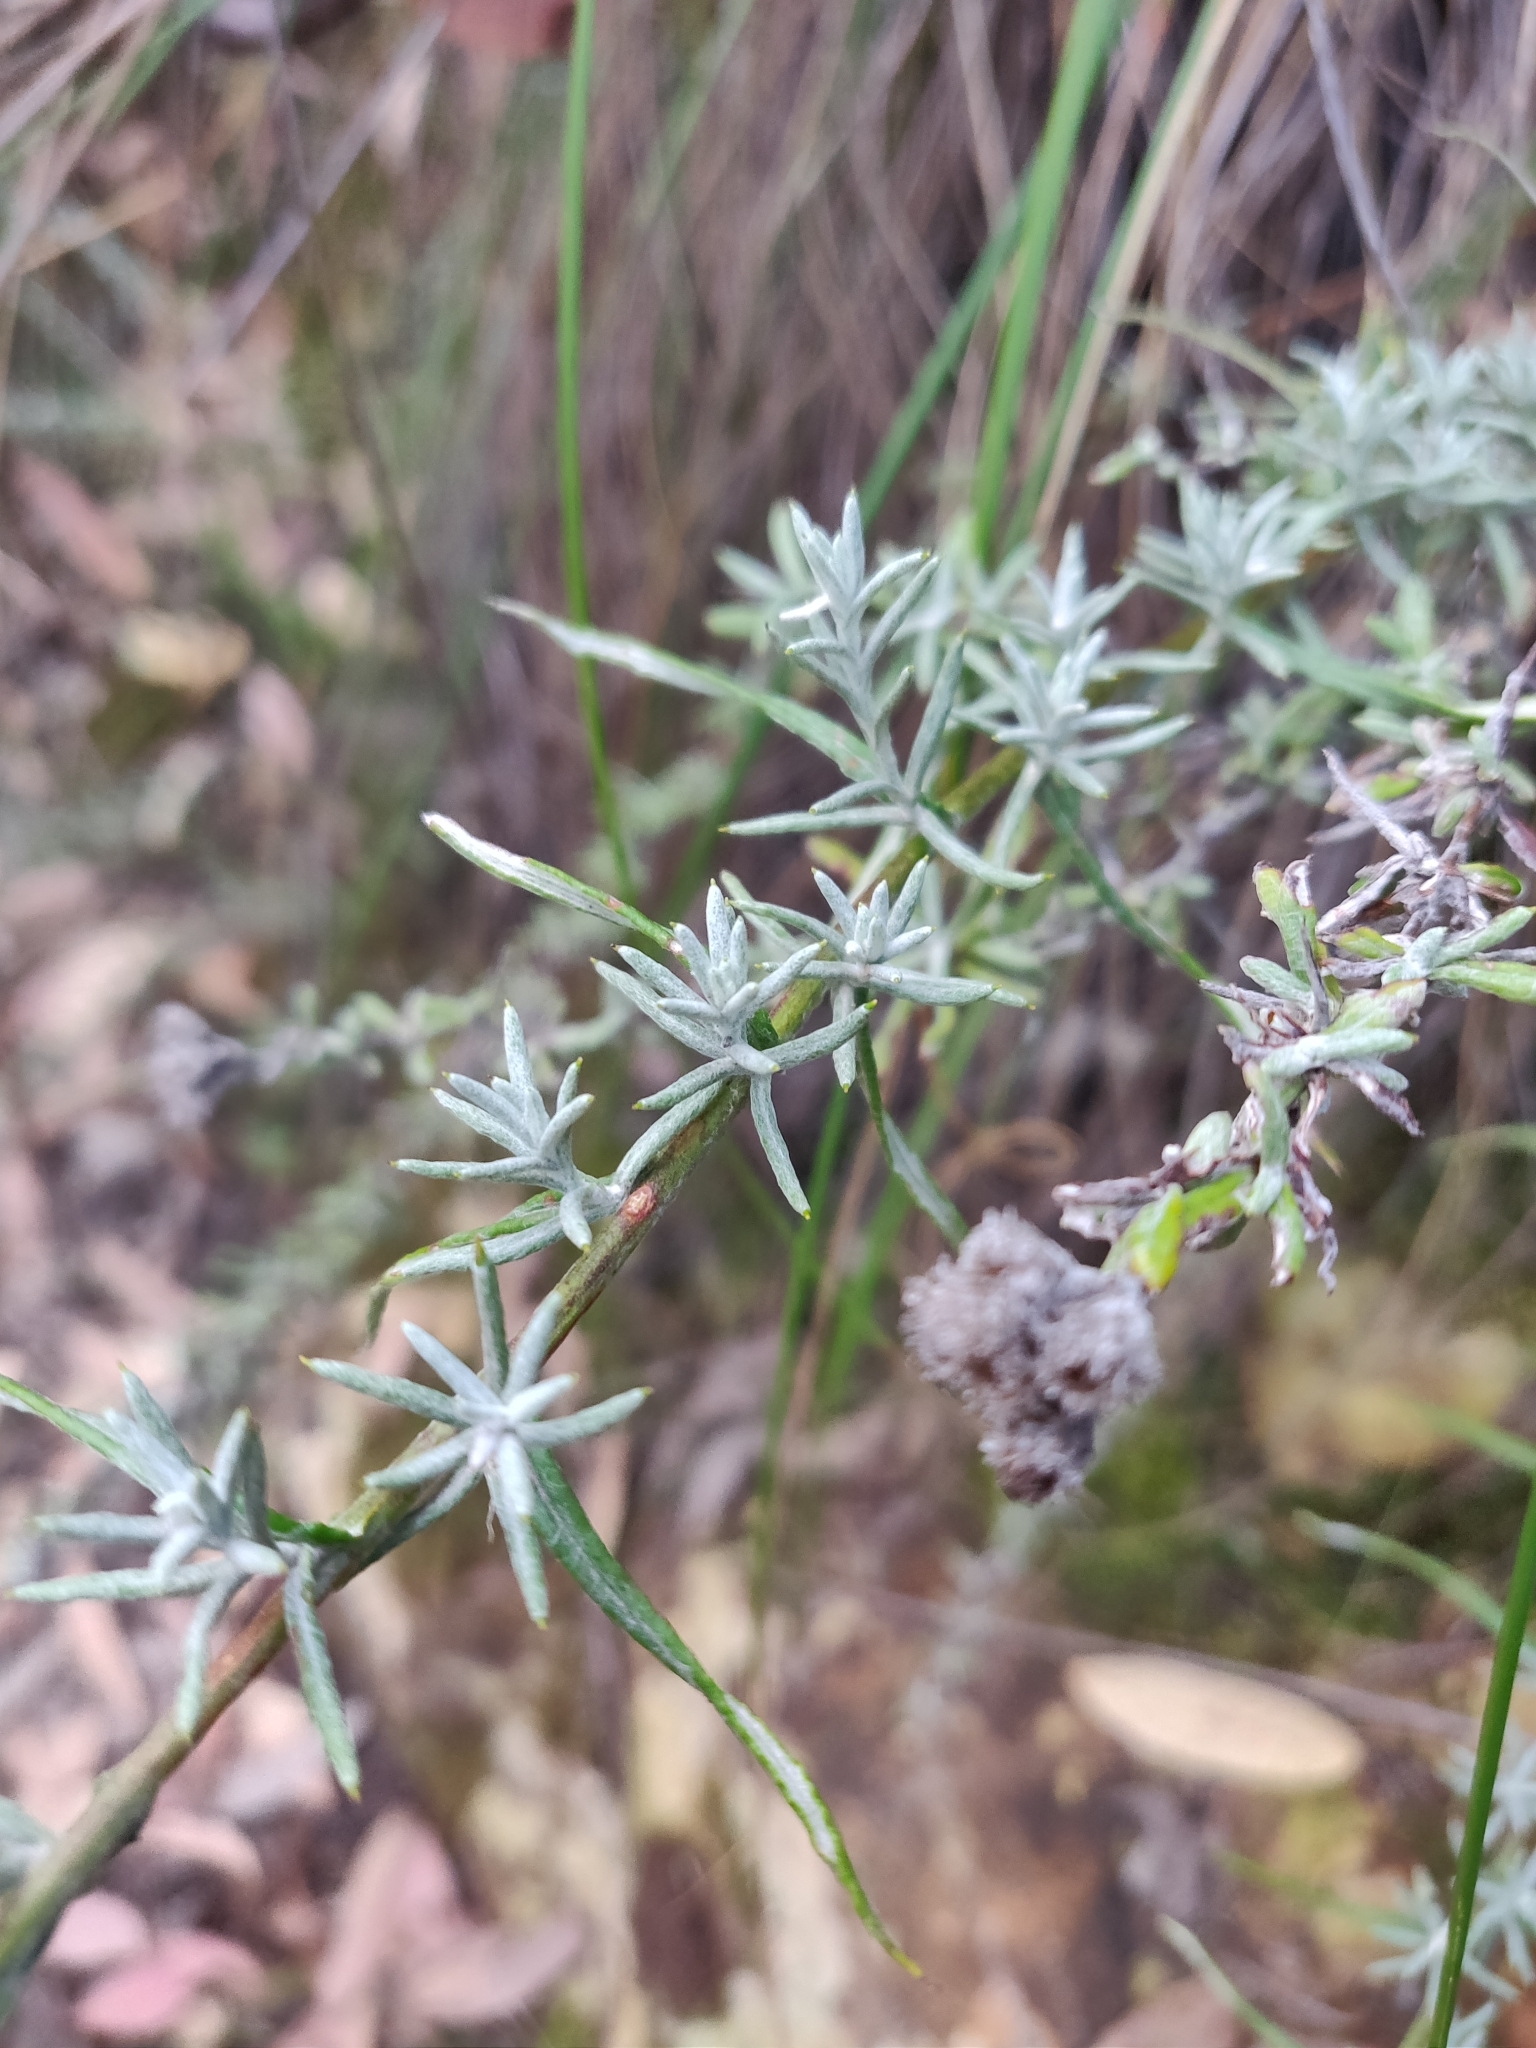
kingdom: Plantae
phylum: Tracheophyta
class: Magnoliopsida
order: Asterales
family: Asteraceae
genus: Chrysocephalum
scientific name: Chrysocephalum semipapposum
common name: Clustered everlasting
